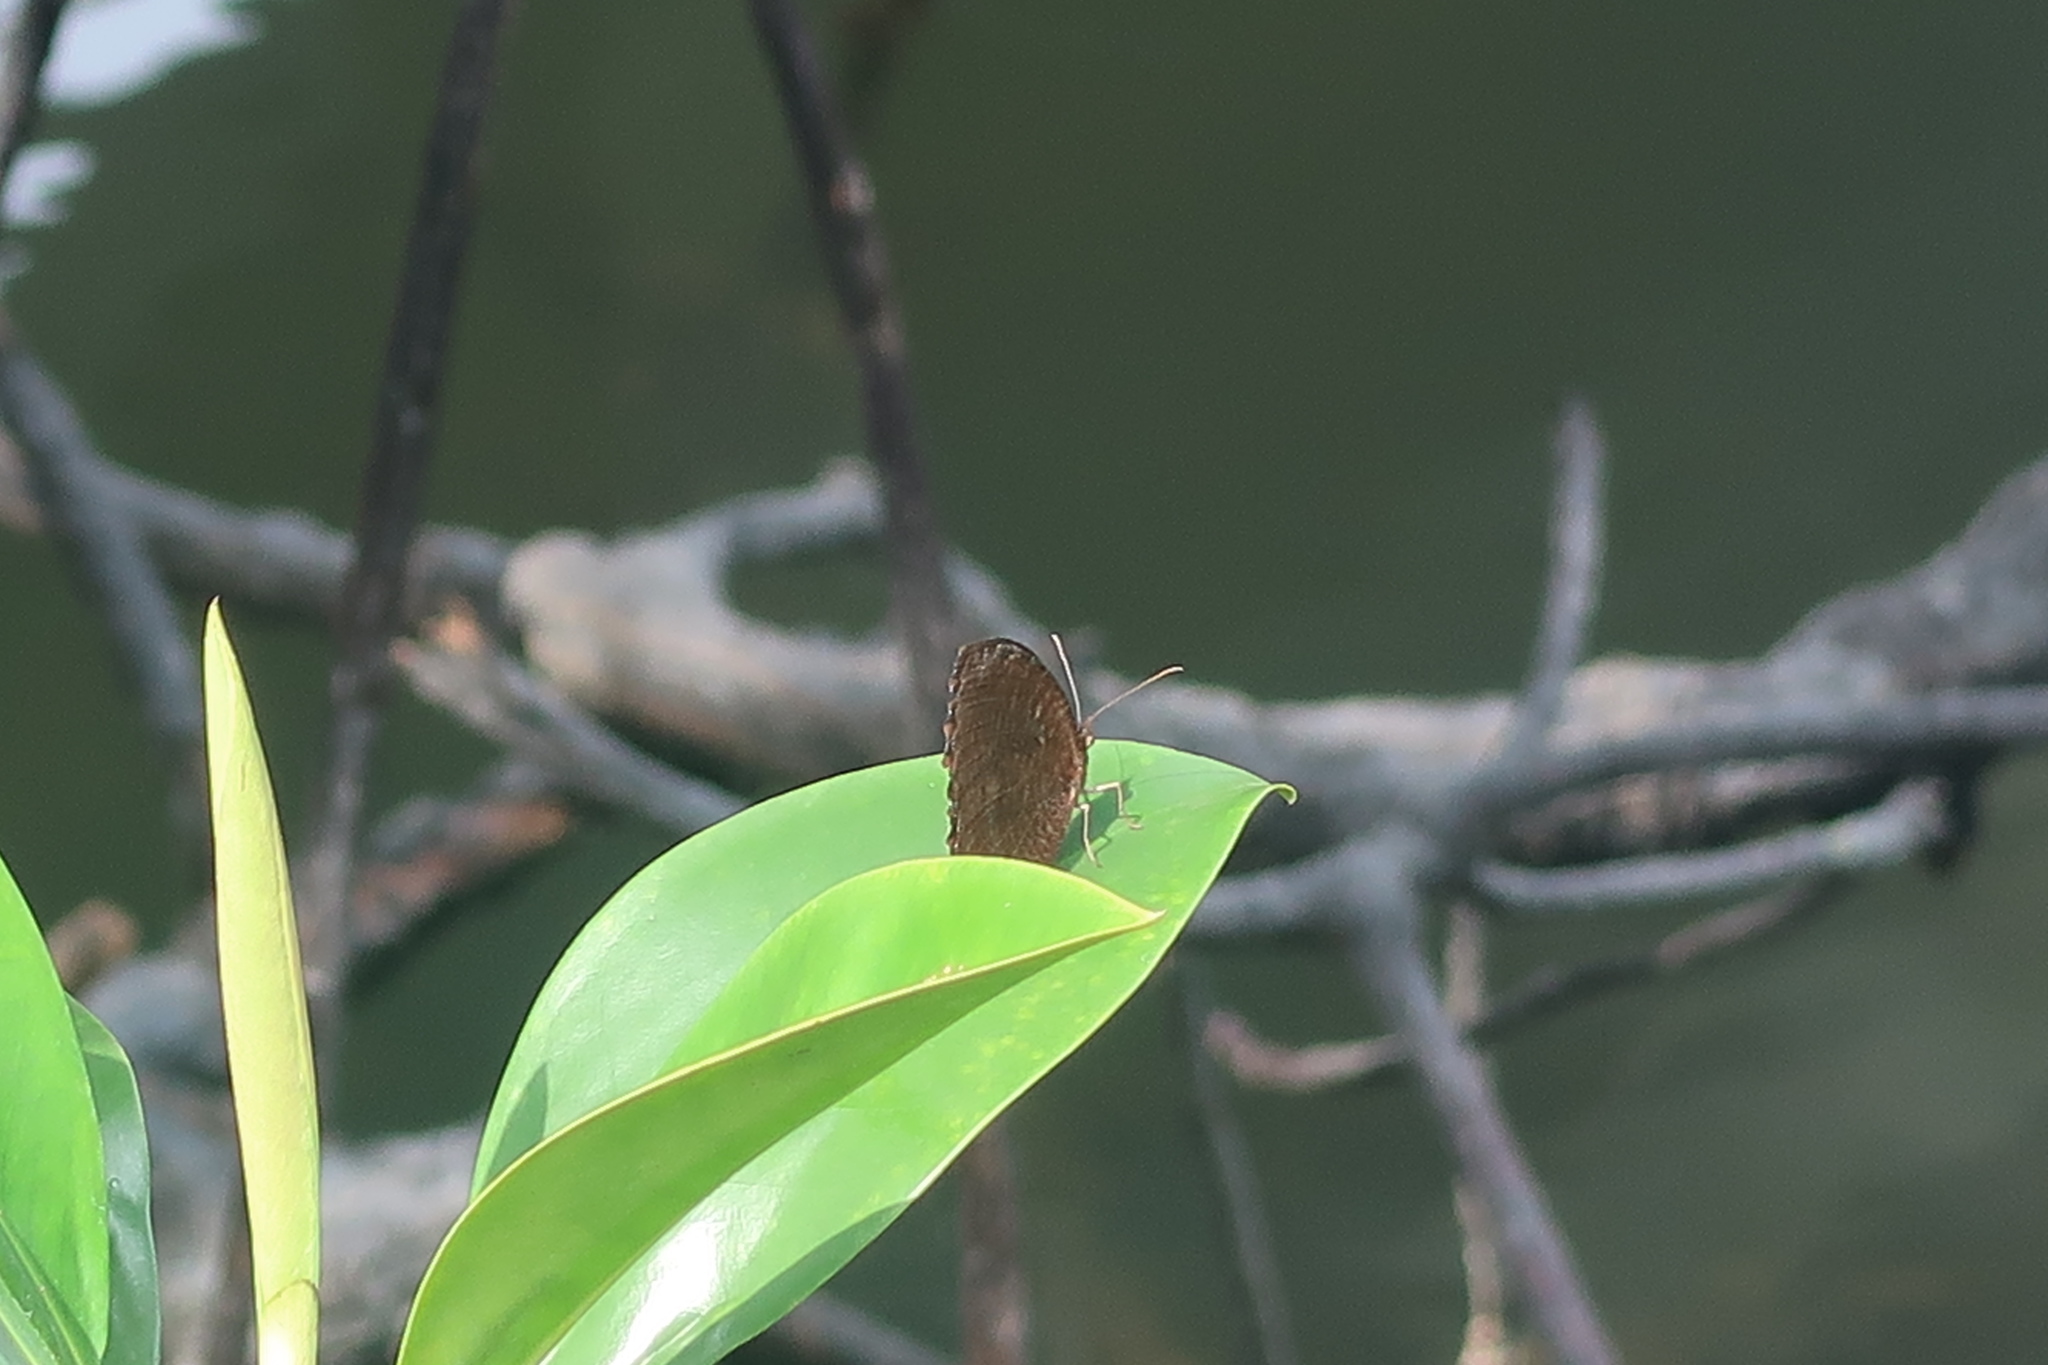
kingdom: Animalia
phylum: Arthropoda
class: Insecta
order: Lepidoptera
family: Nymphalidae
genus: Elymnias
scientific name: Elymnias hypermnestra
